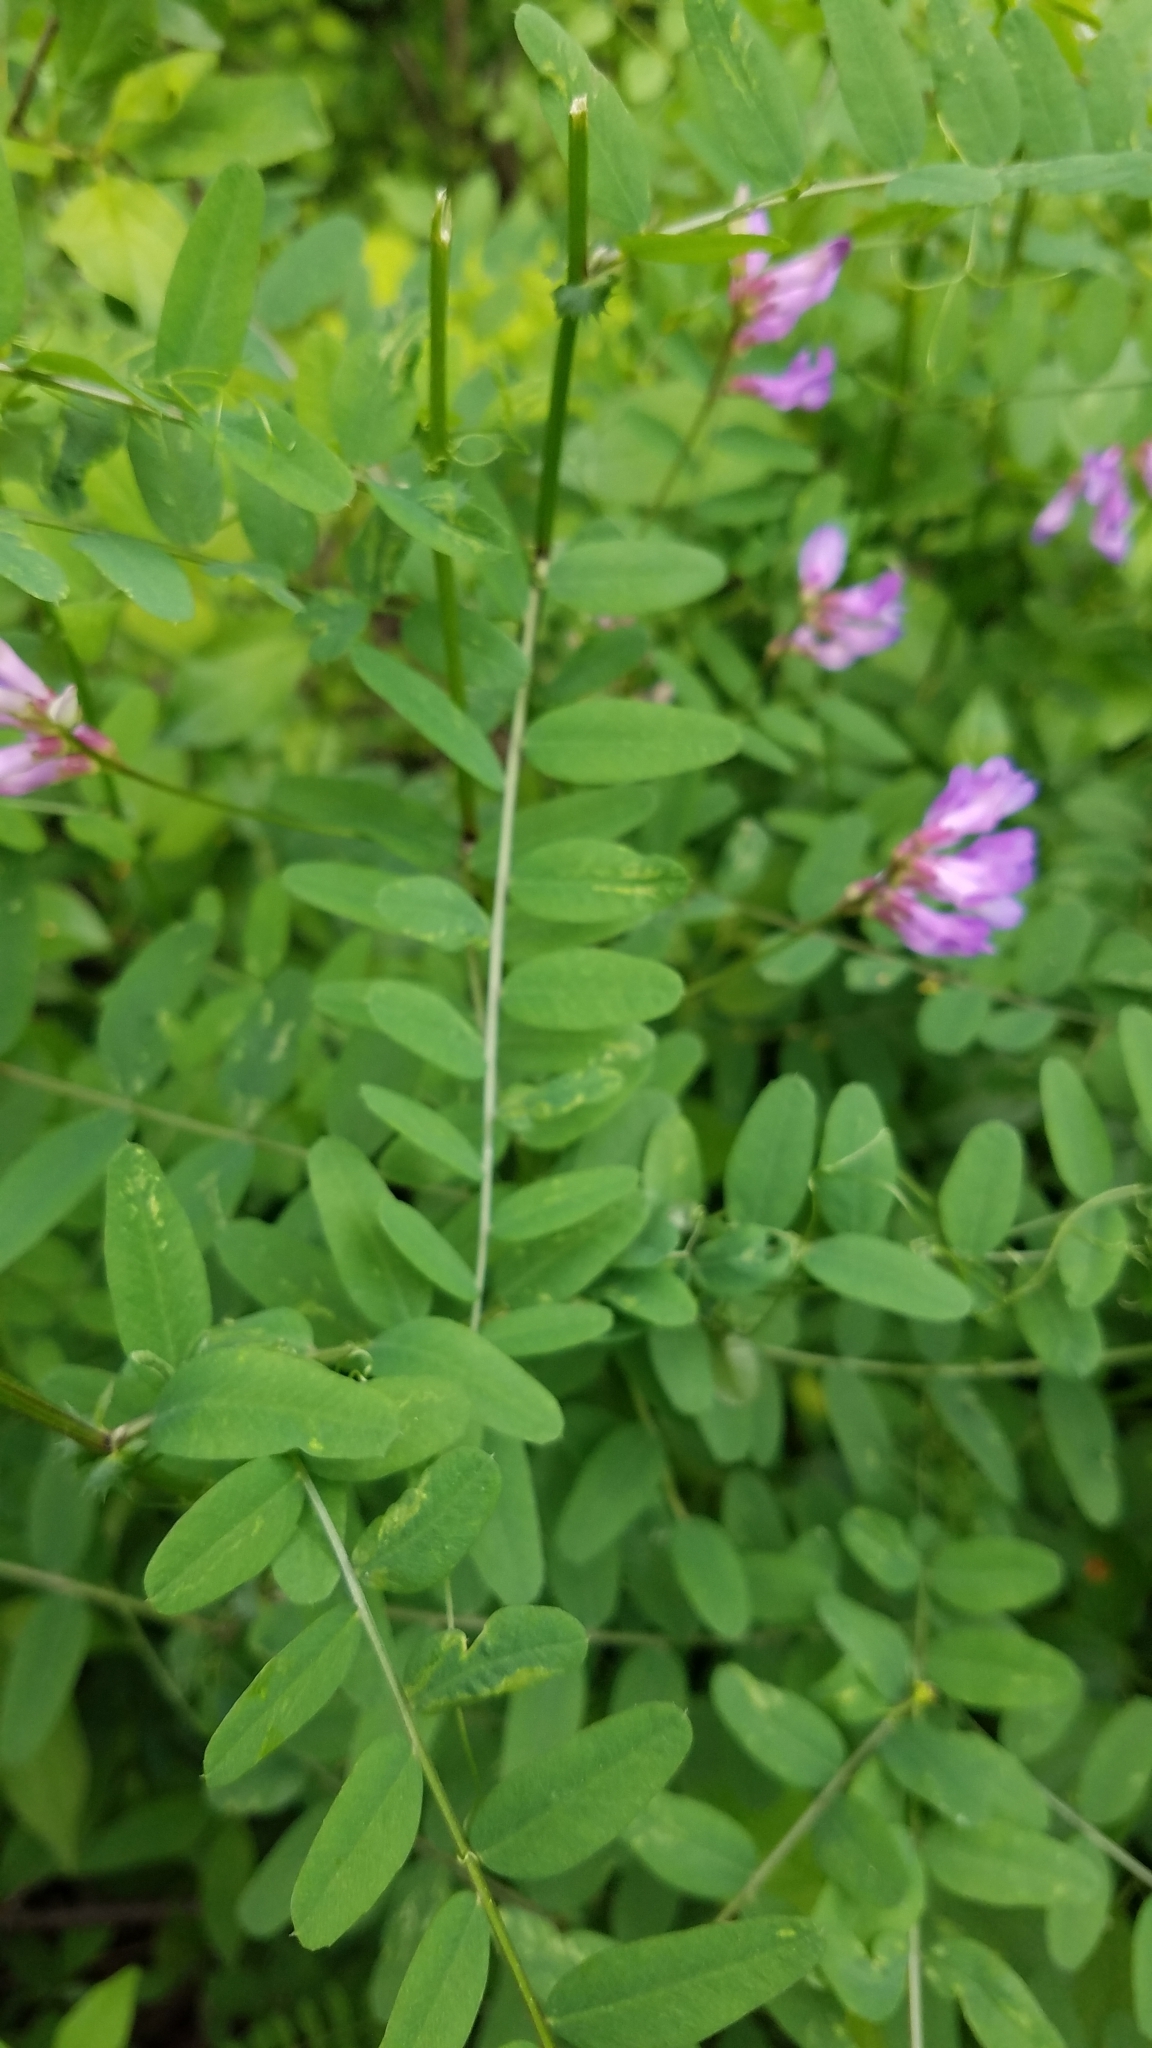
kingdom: Plantae
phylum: Tracheophyta
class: Magnoliopsida
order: Fabales
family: Fabaceae
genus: Vicia
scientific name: Vicia americana
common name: American vetch
